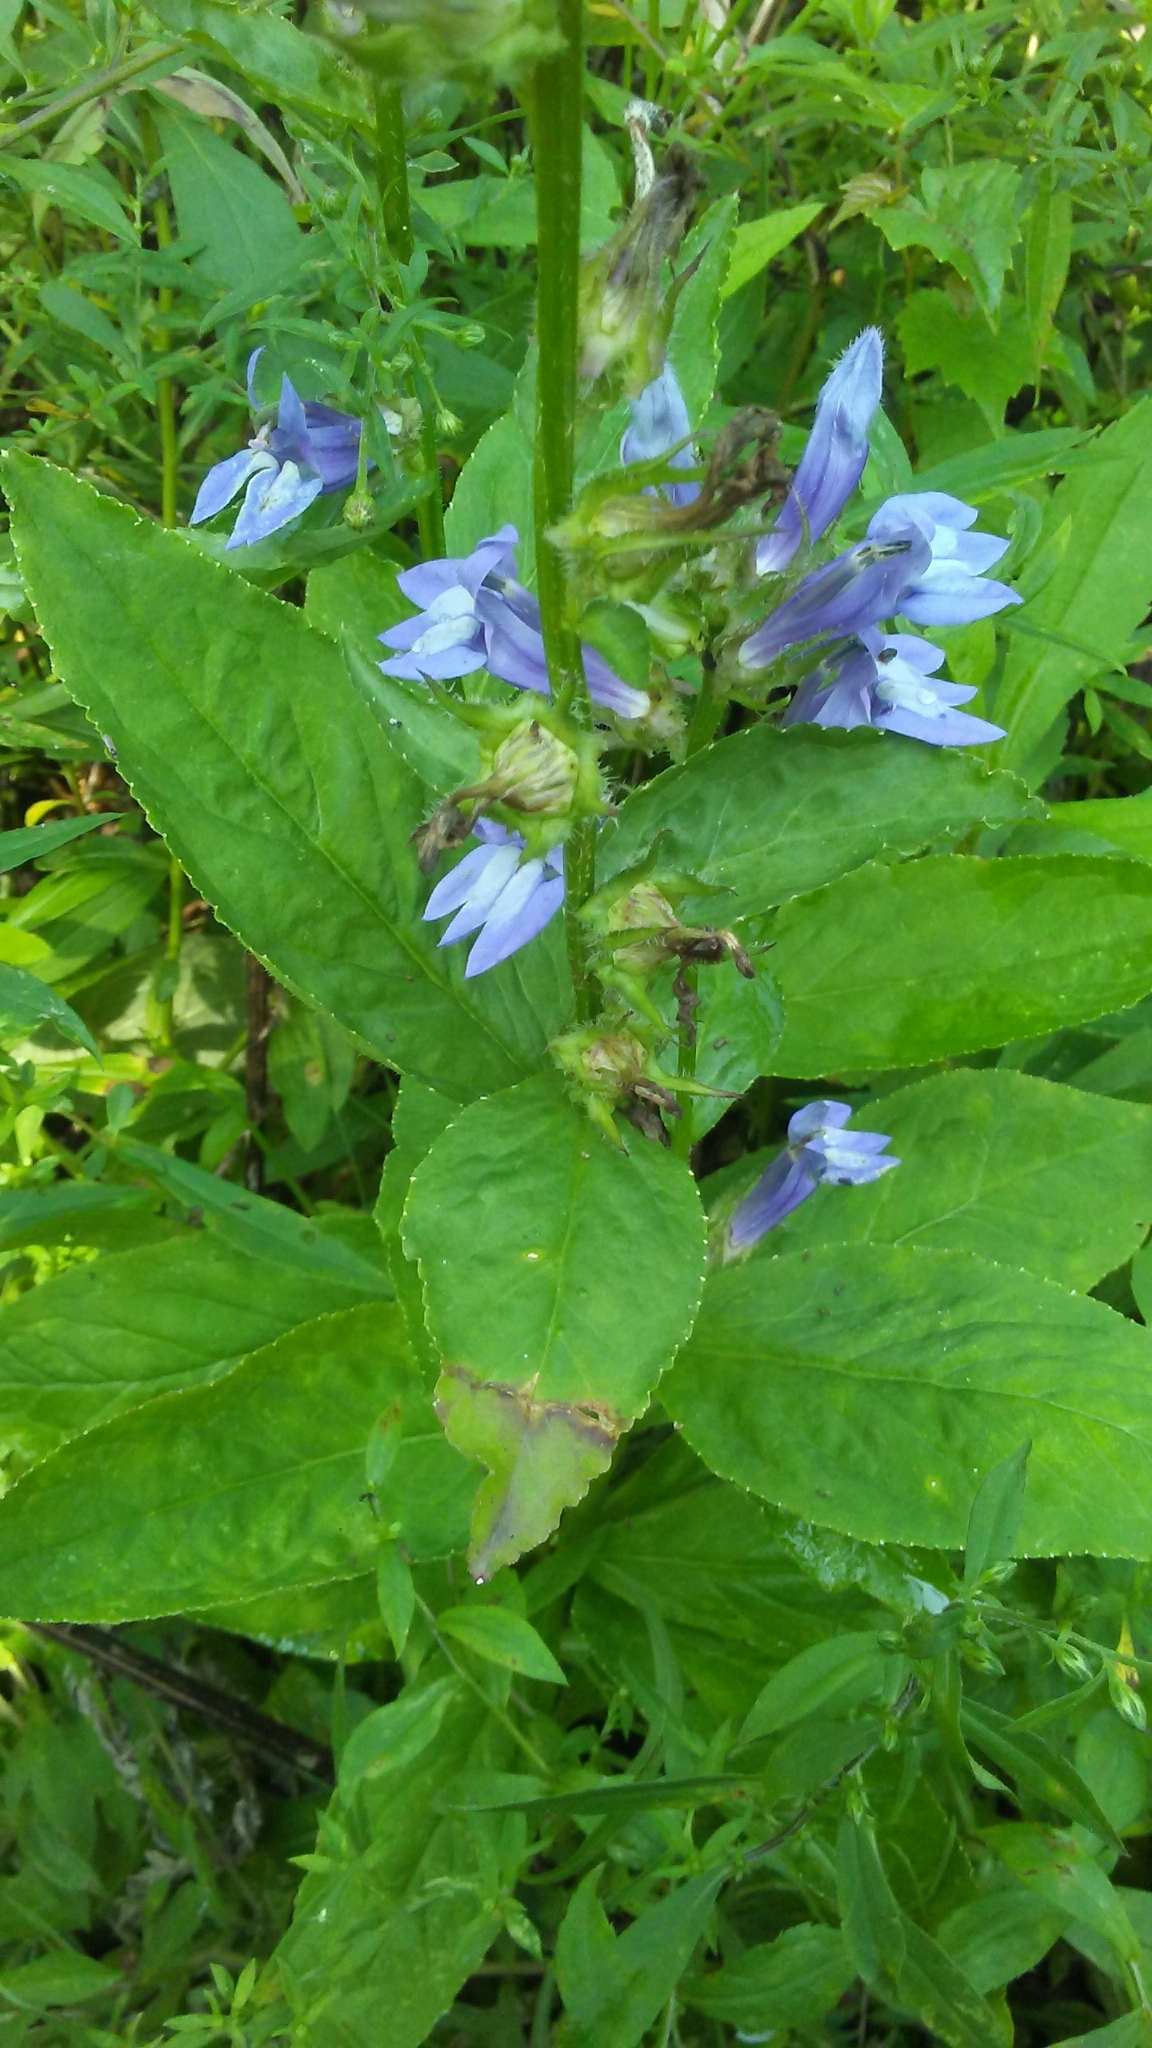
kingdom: Plantae
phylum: Tracheophyta
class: Magnoliopsida
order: Asterales
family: Campanulaceae
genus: Lobelia
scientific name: Lobelia siphilitica
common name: Great lobelia
